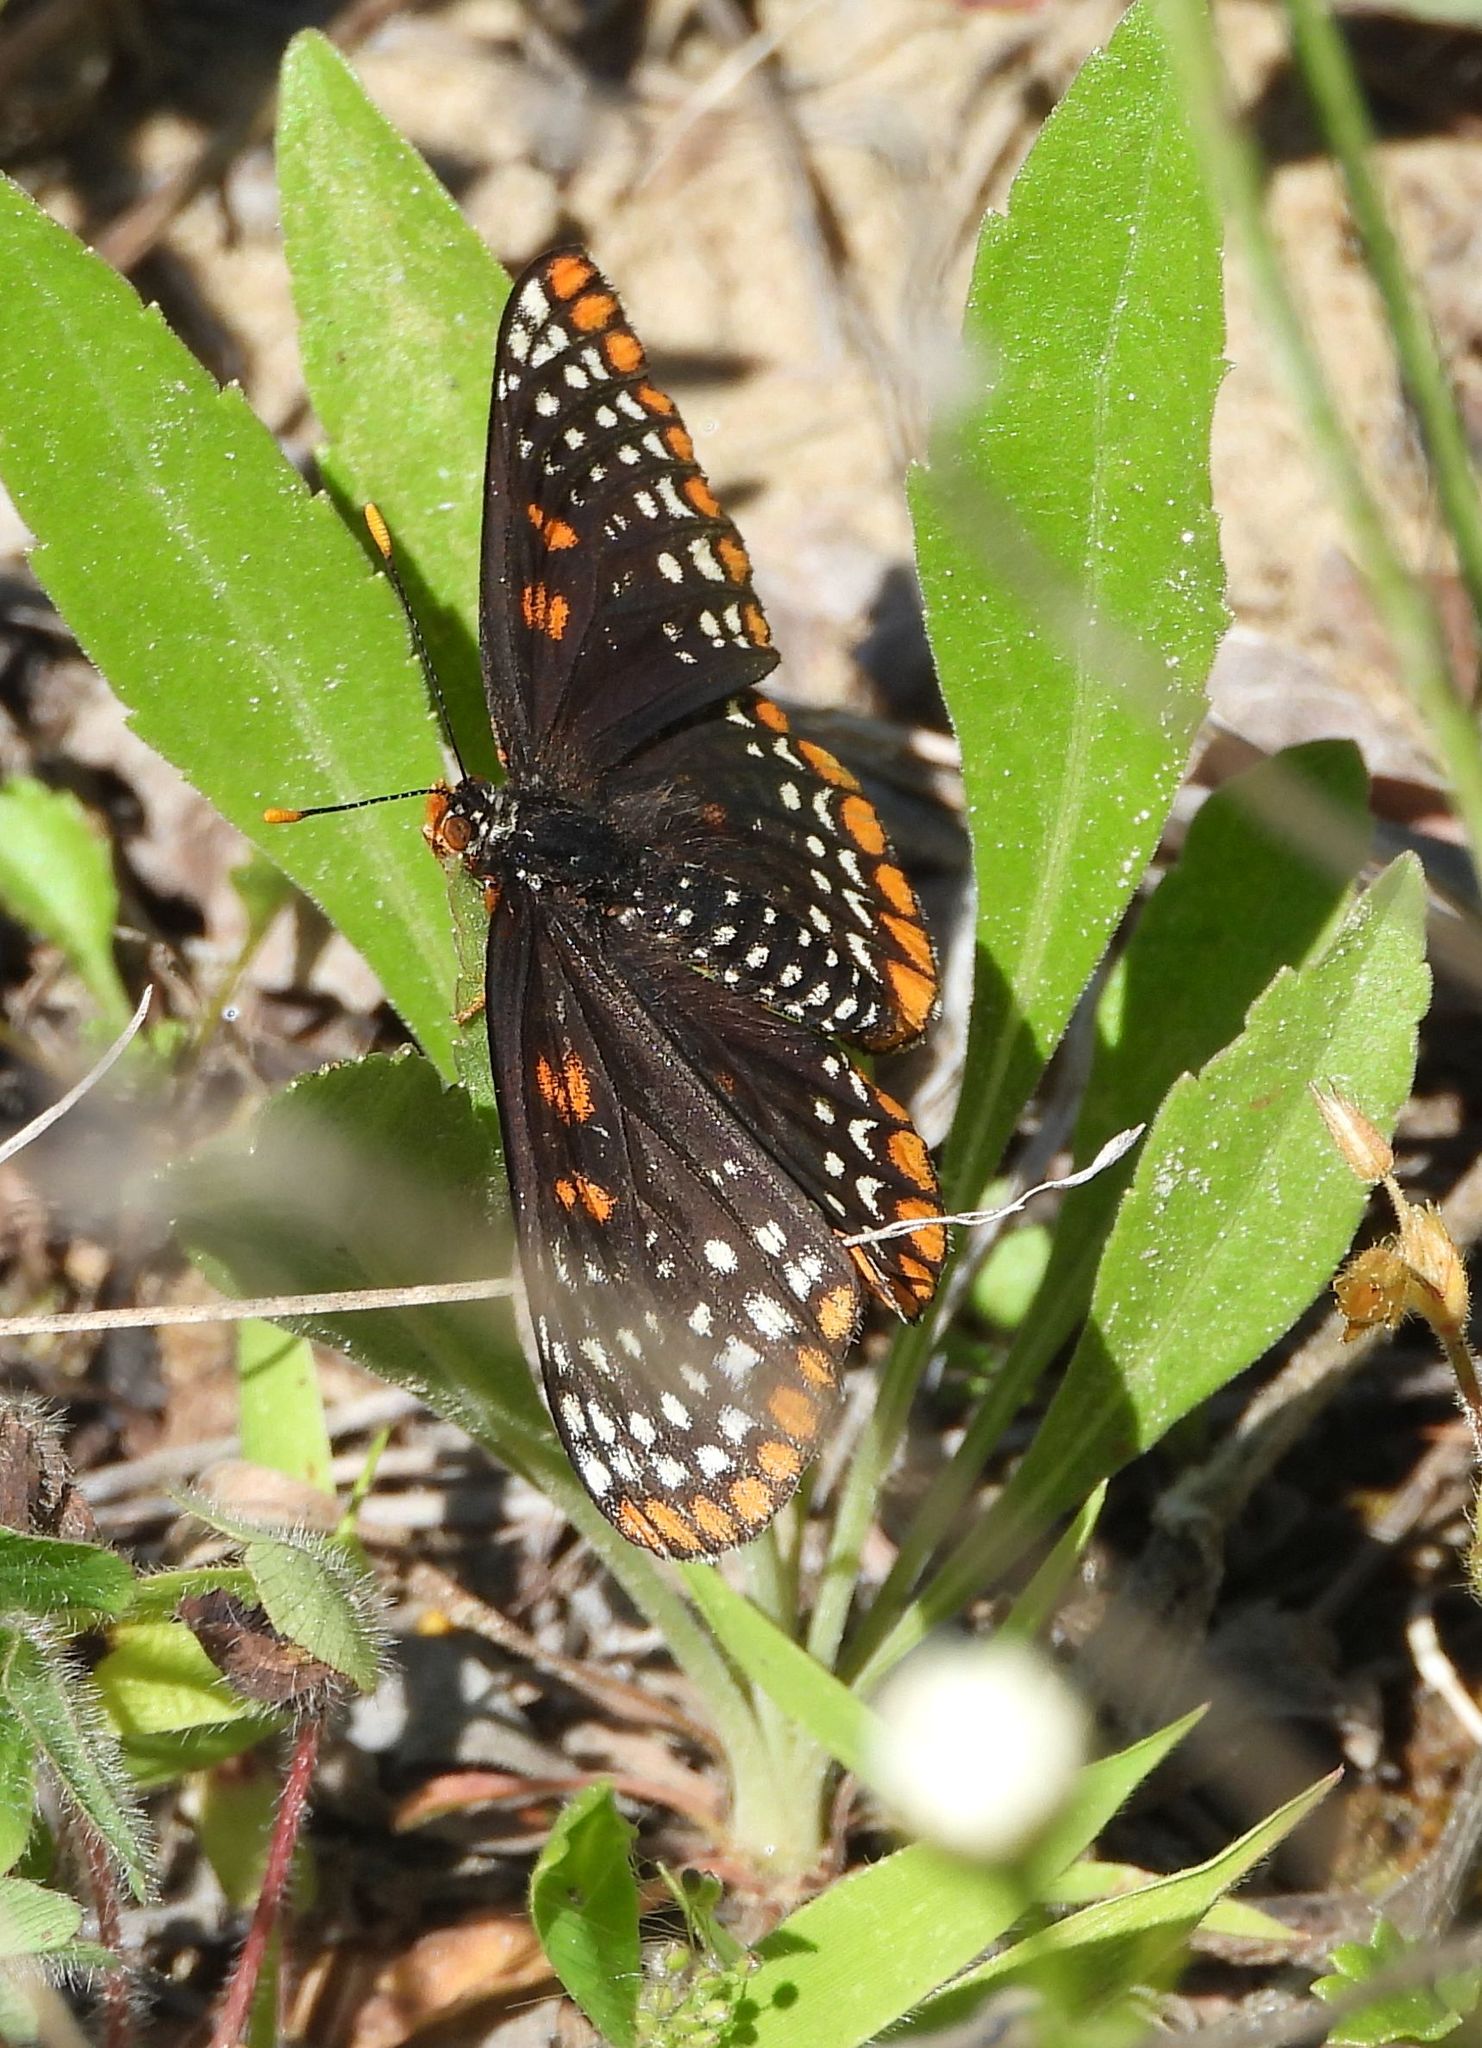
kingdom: Animalia
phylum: Arthropoda
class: Insecta
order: Lepidoptera
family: Nymphalidae
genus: Euphydryas
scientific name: Euphydryas phaeton
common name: Baltimore checkerspot
